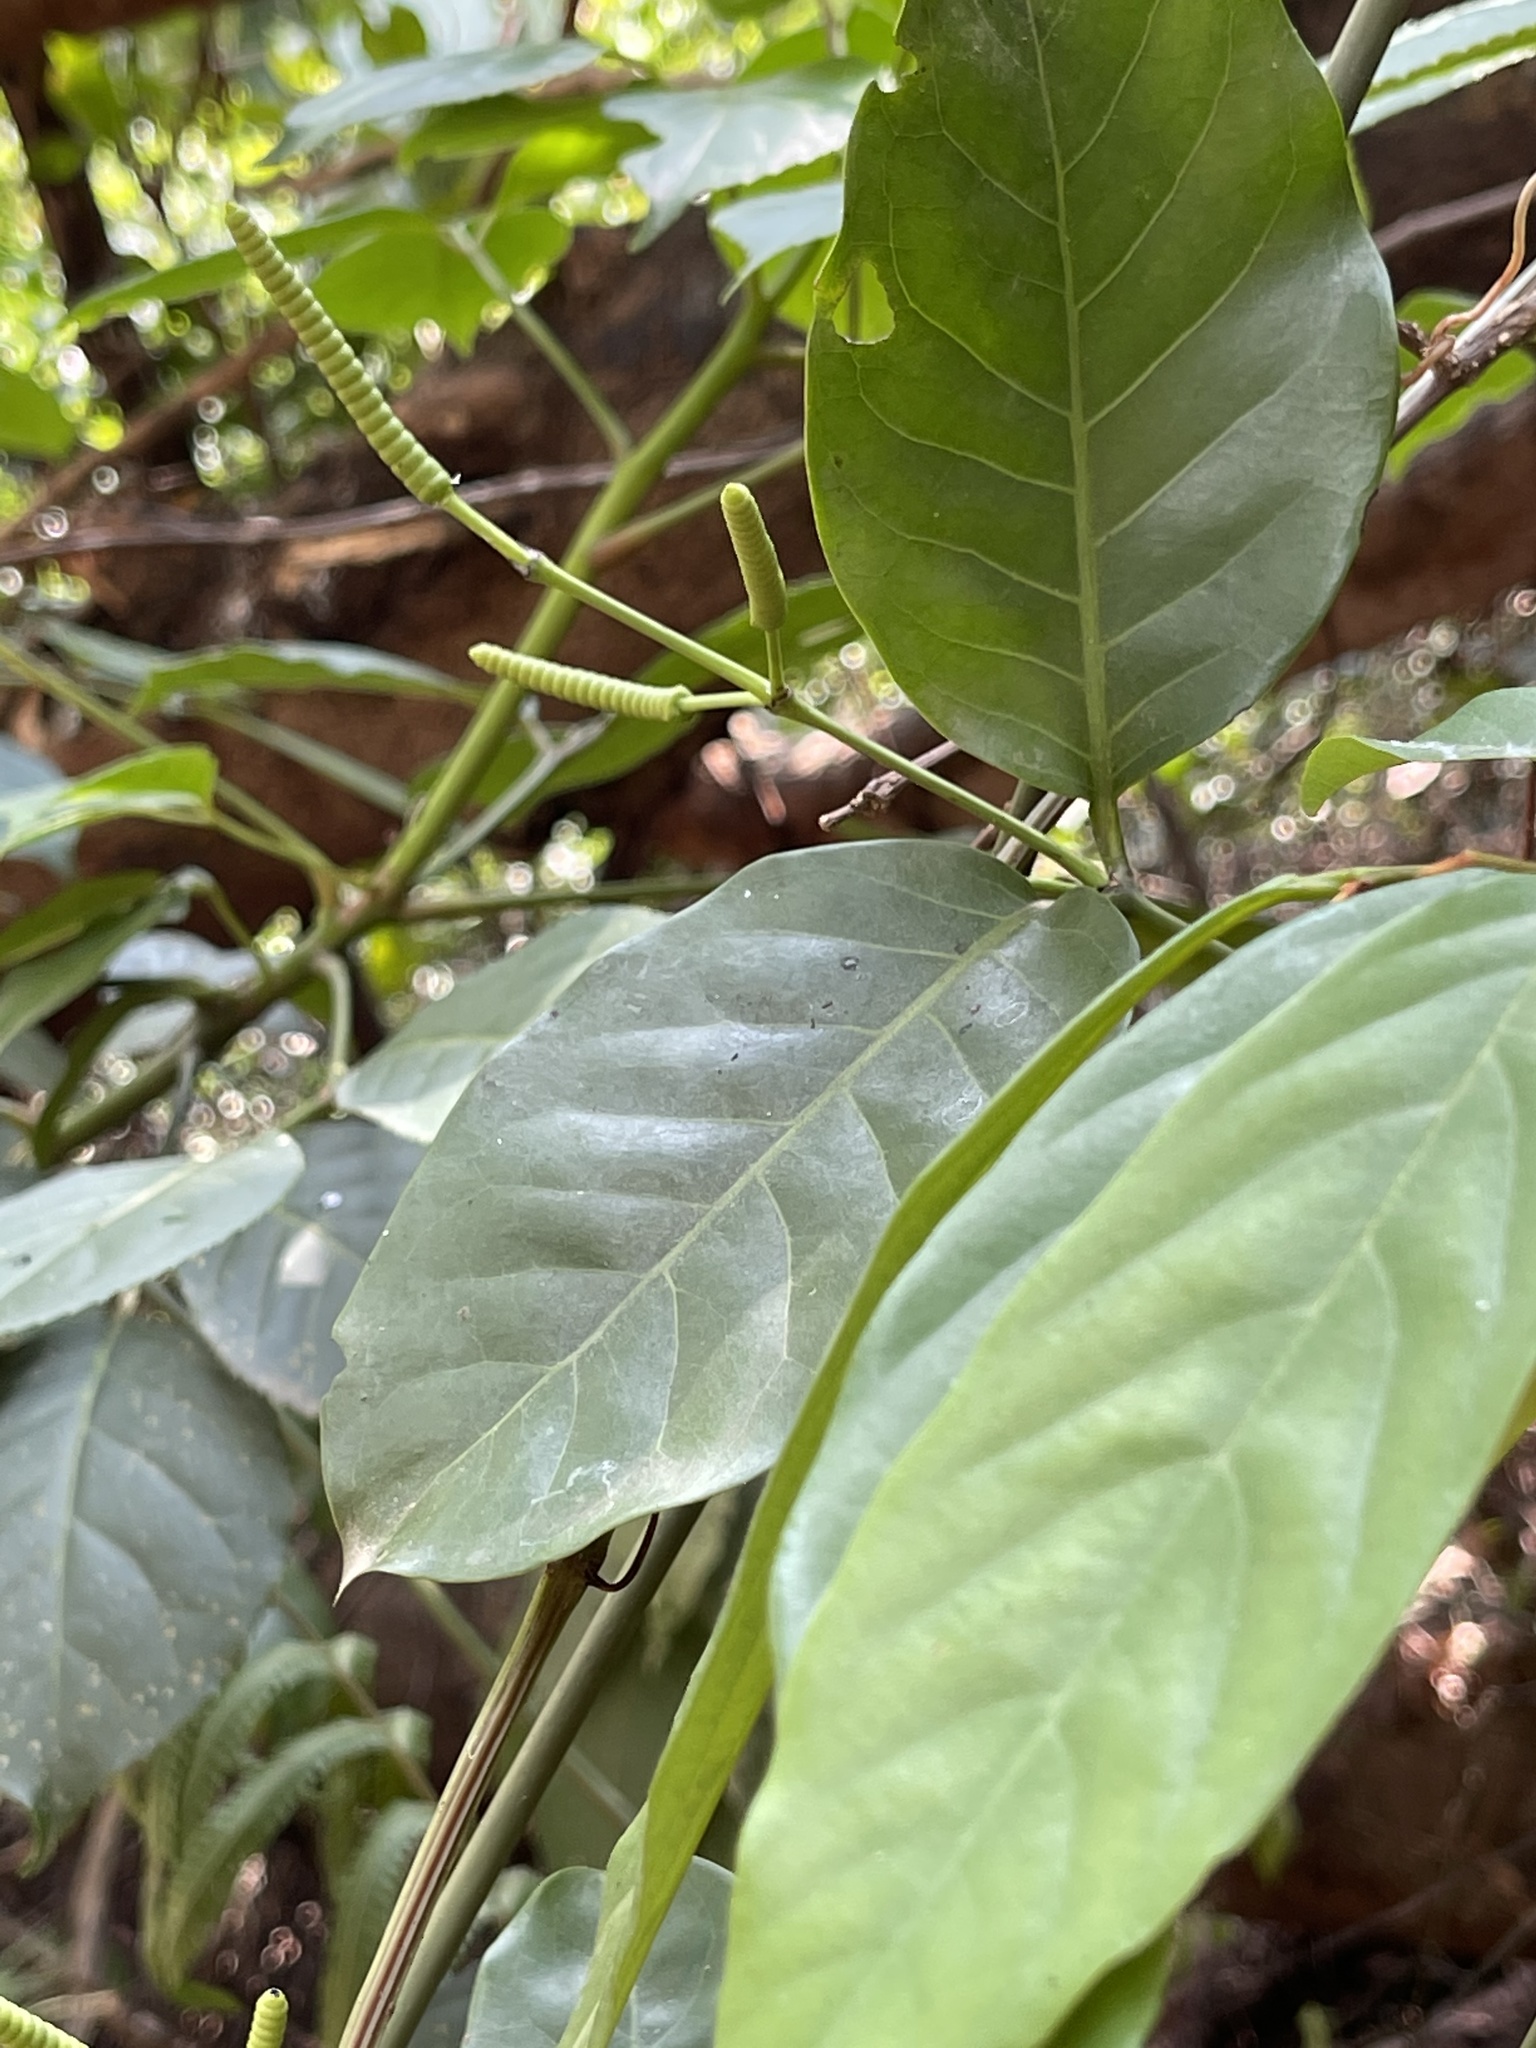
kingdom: Plantae
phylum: Tracheophyta
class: Gnetopsida
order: Gnetales
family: Gnetaceae
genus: Gnetum
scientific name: Gnetum luofuense
